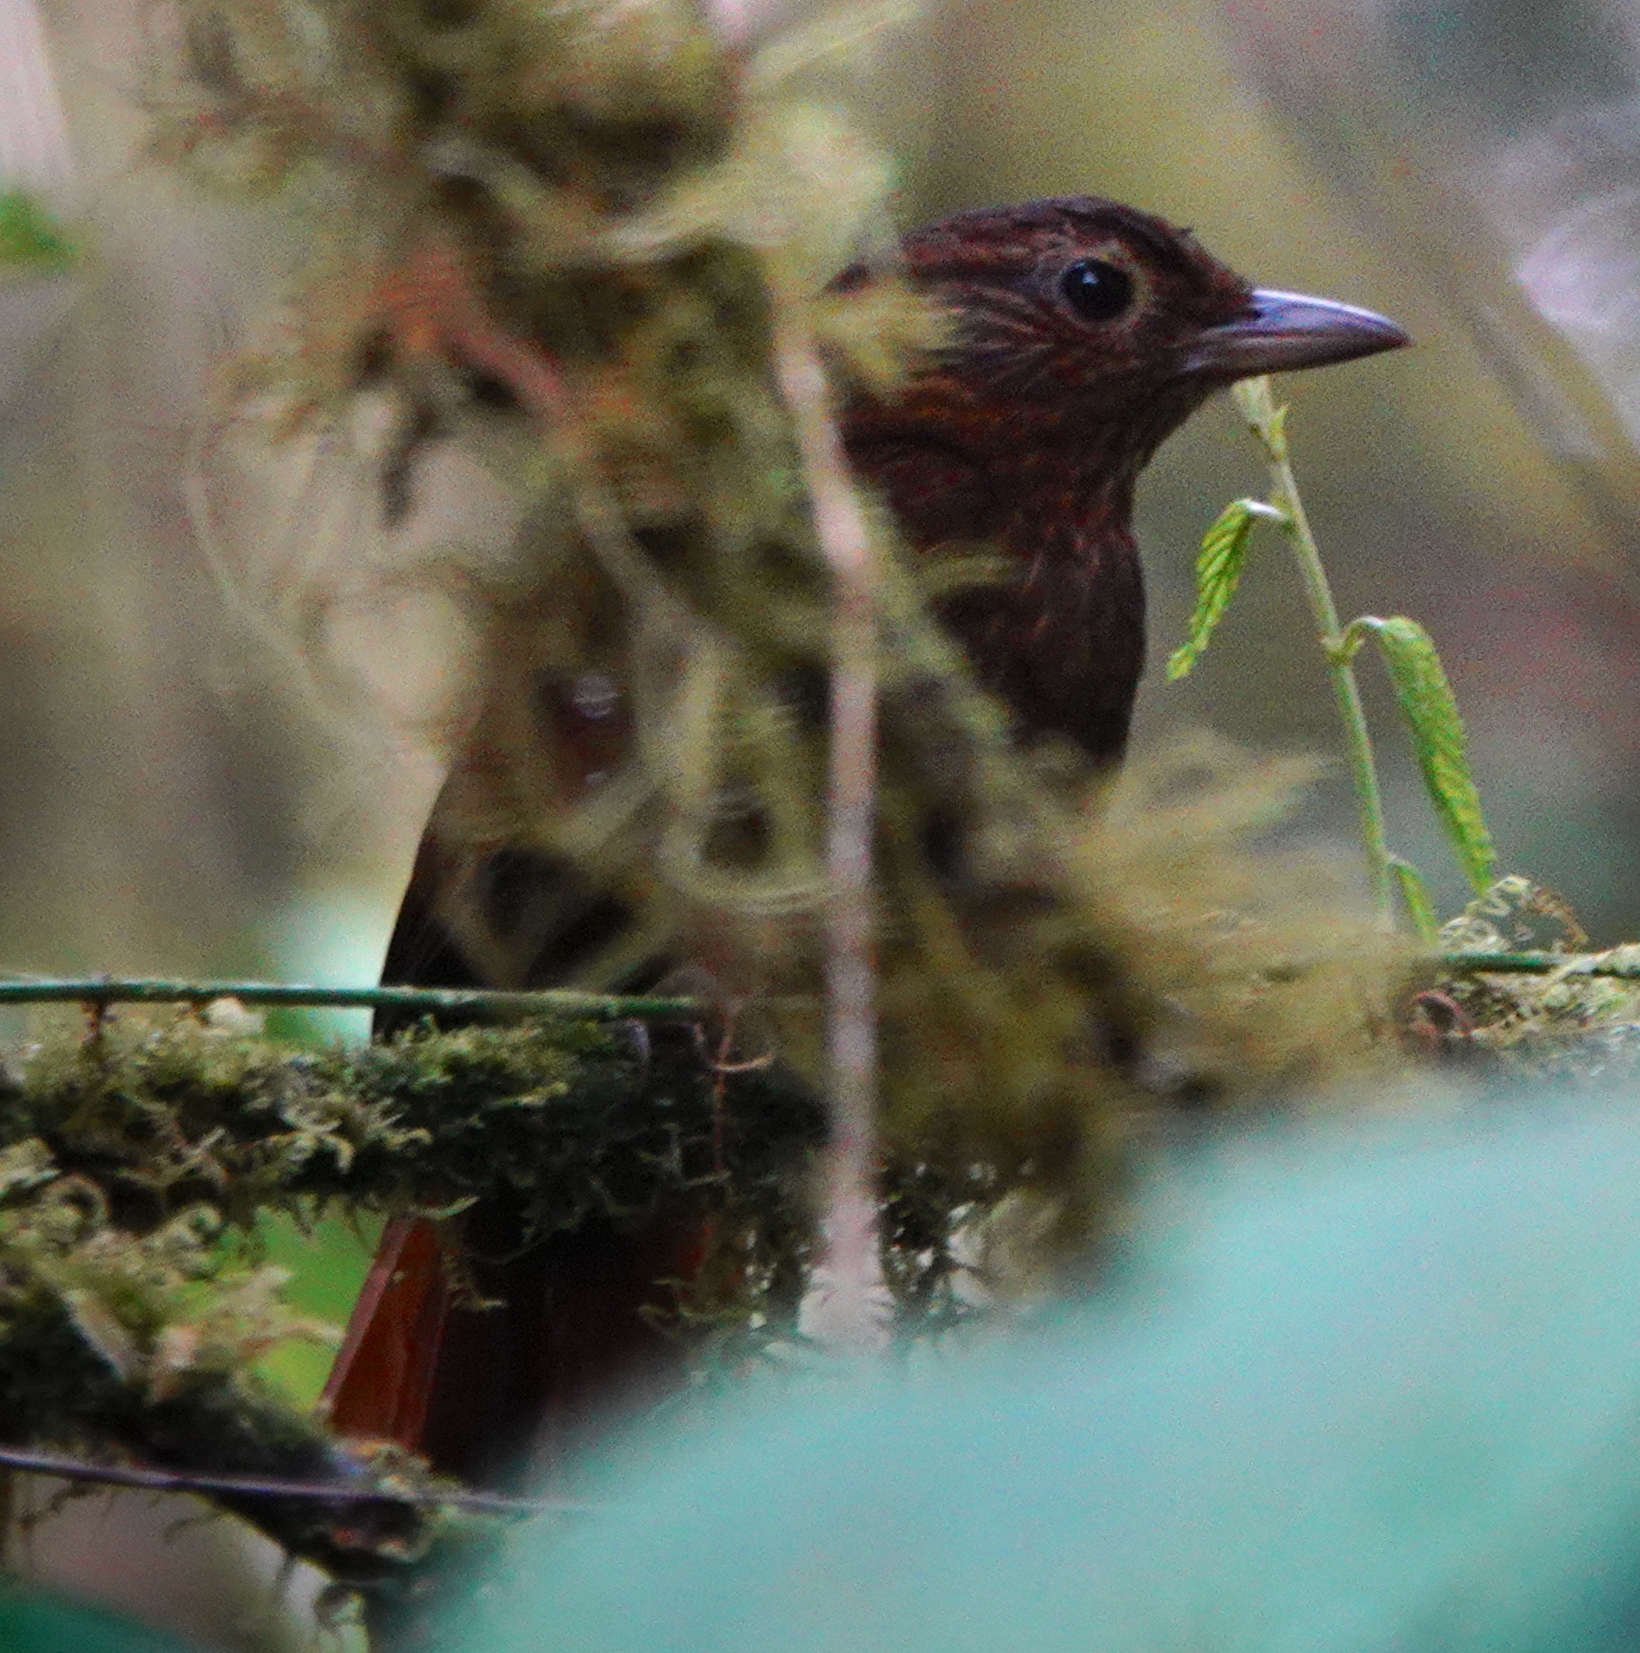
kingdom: Animalia
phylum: Chordata
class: Aves
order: Passeriformes
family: Furnariidae
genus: Thripadectes
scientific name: Thripadectes ignobilis
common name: Uniform treehunter
